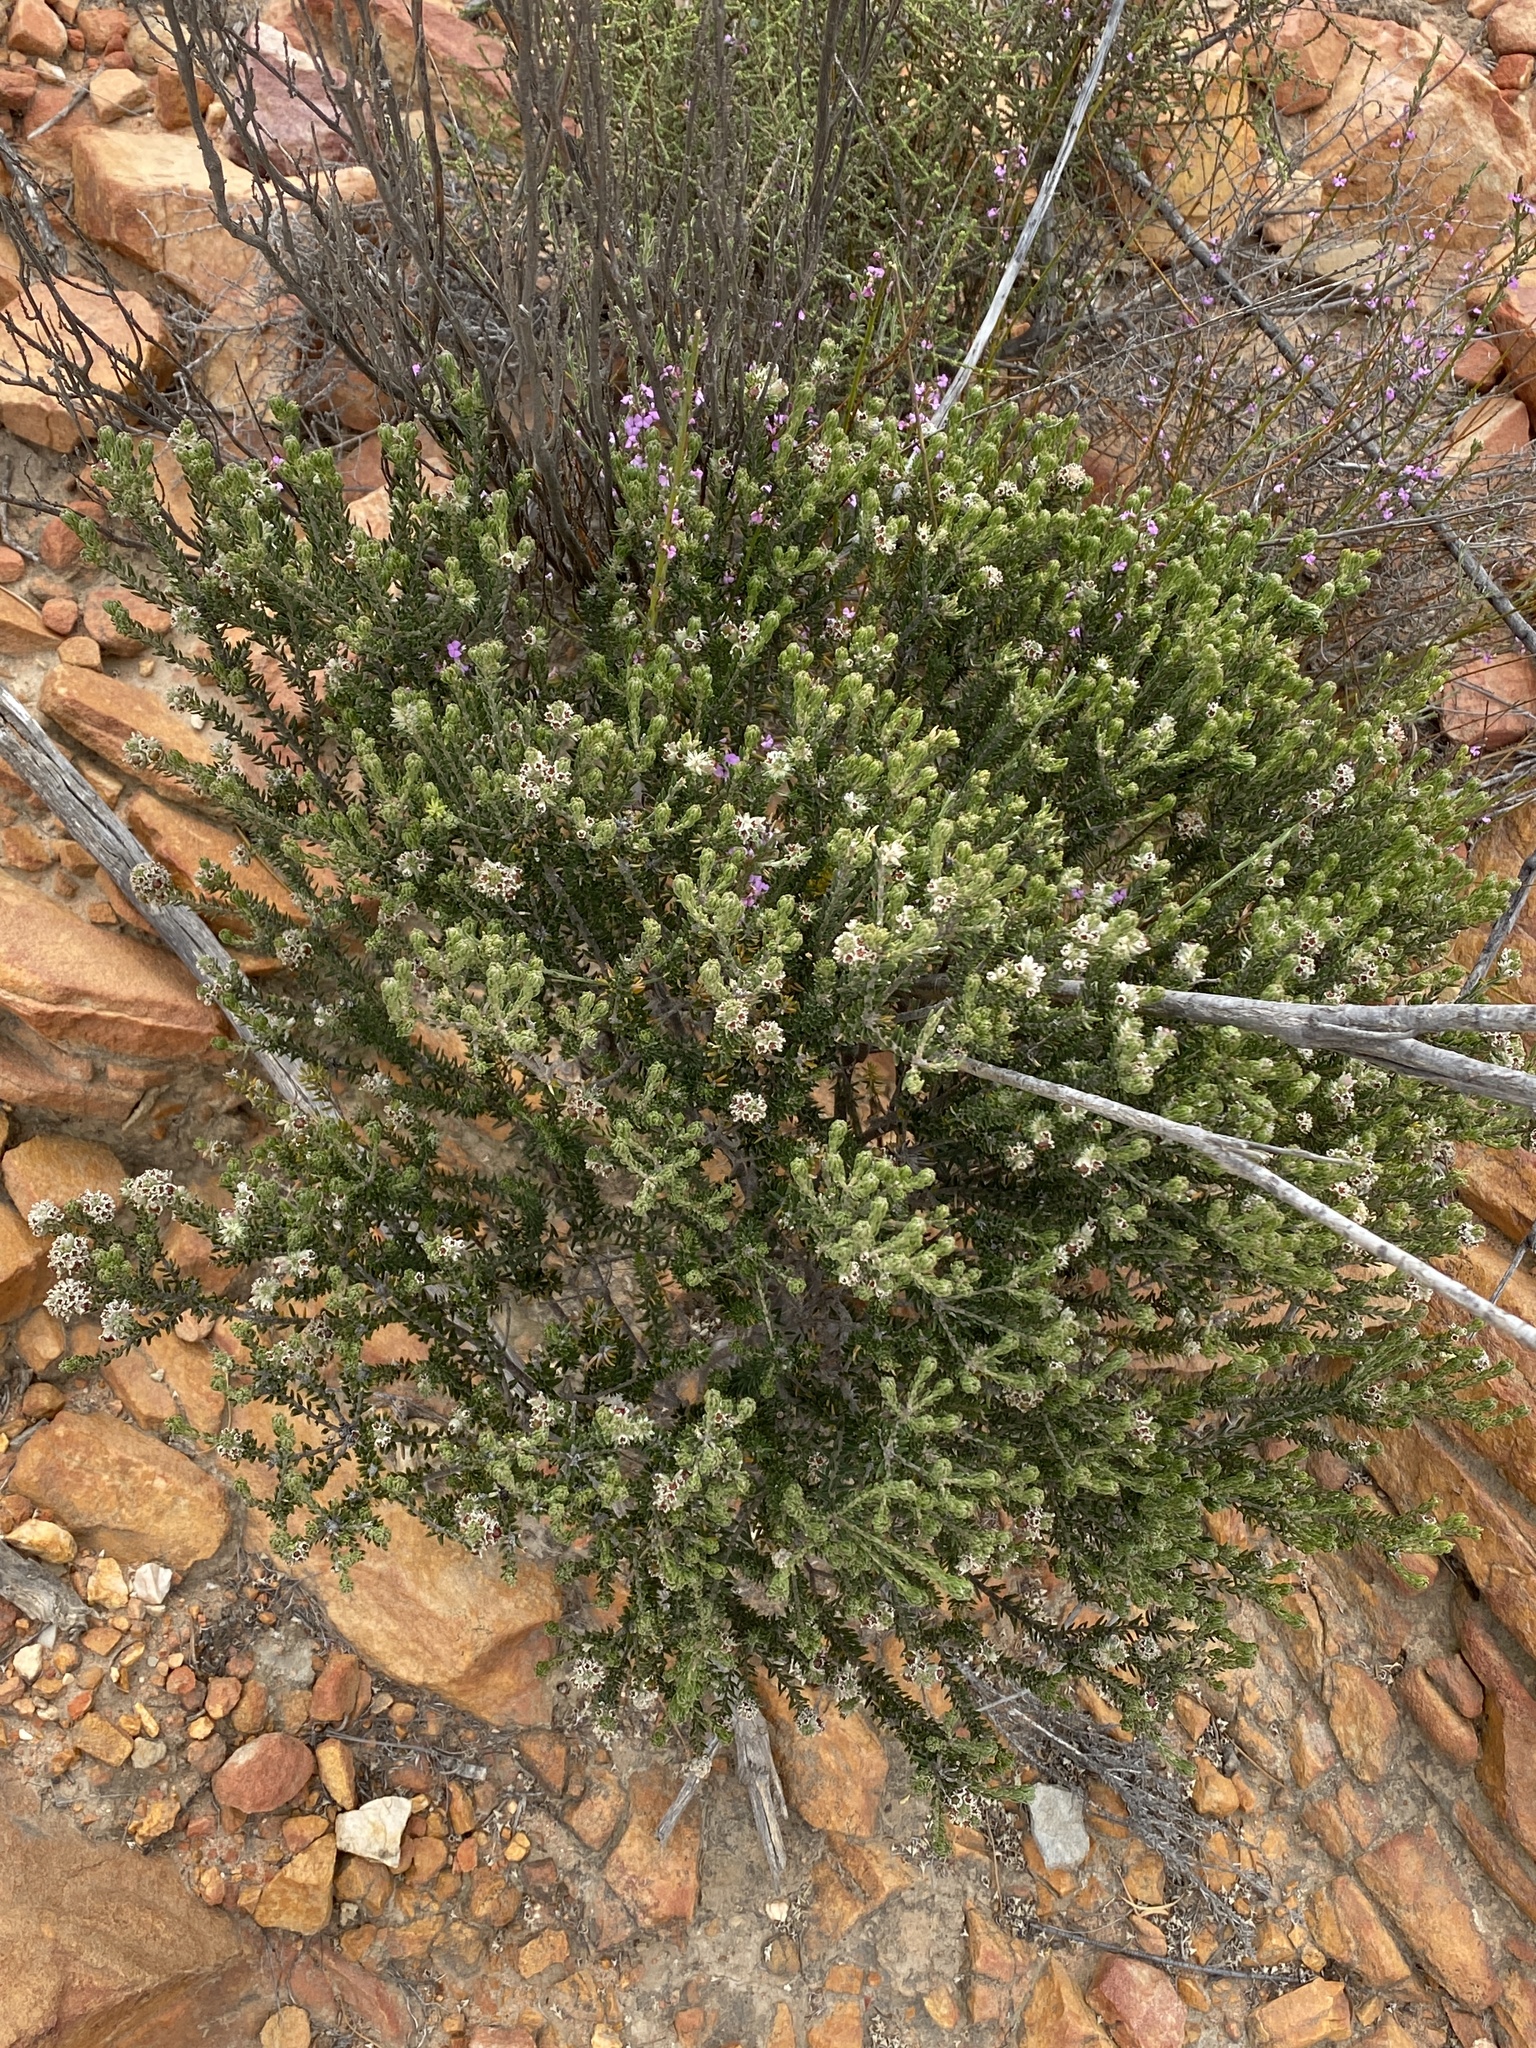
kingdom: Plantae
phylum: Tracheophyta
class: Magnoliopsida
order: Rosales
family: Rhamnaceae
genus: Phylica
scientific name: Phylica purpurea
